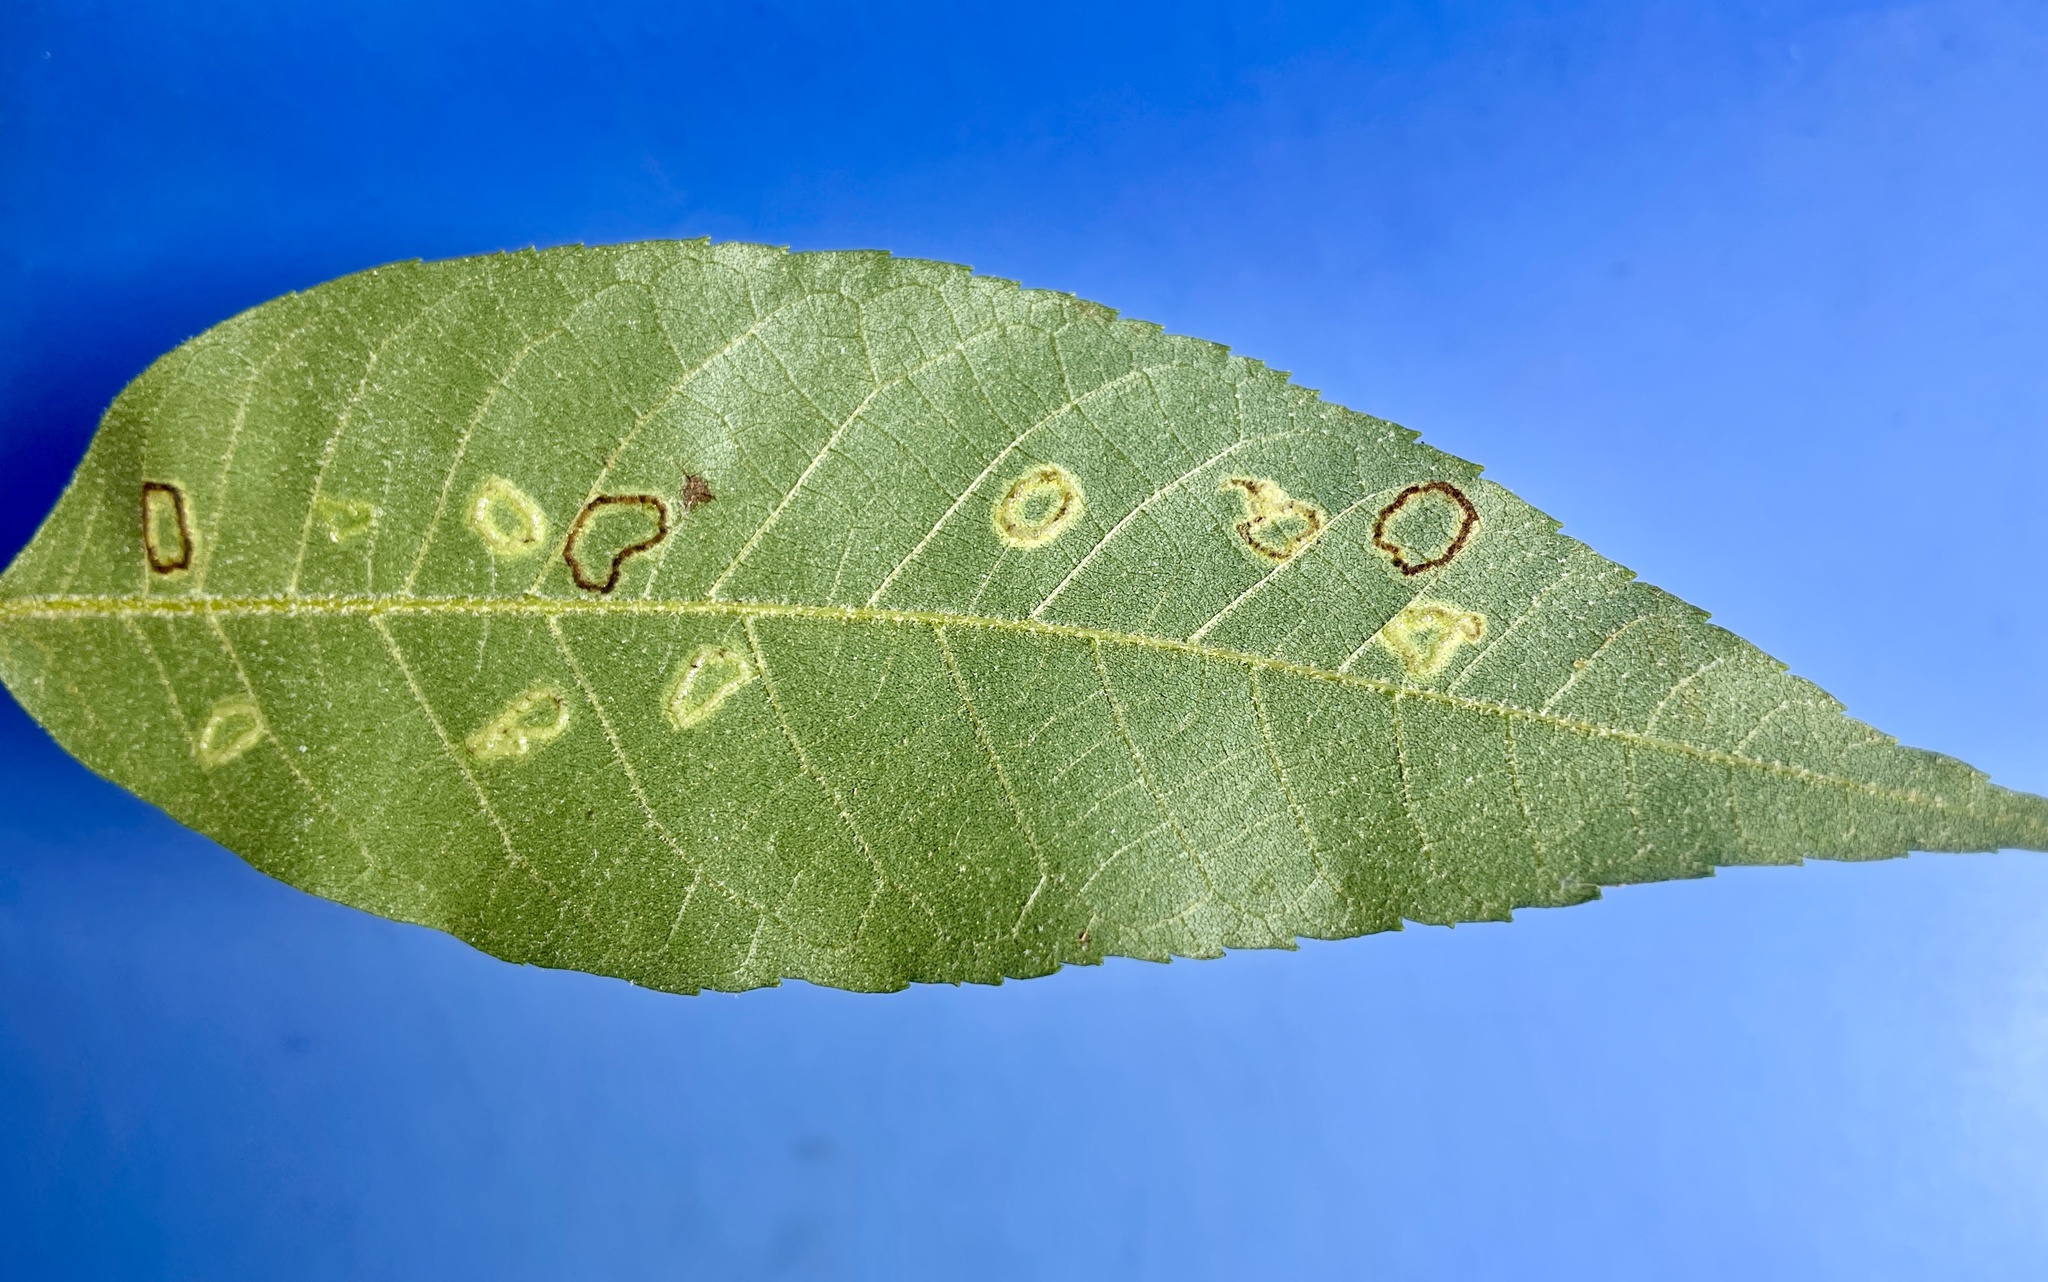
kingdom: Animalia
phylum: Arthropoda
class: Insecta
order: Diptera
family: Cecidomyiidae
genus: Gliaspilota
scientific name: Gliaspilota glutinosa
